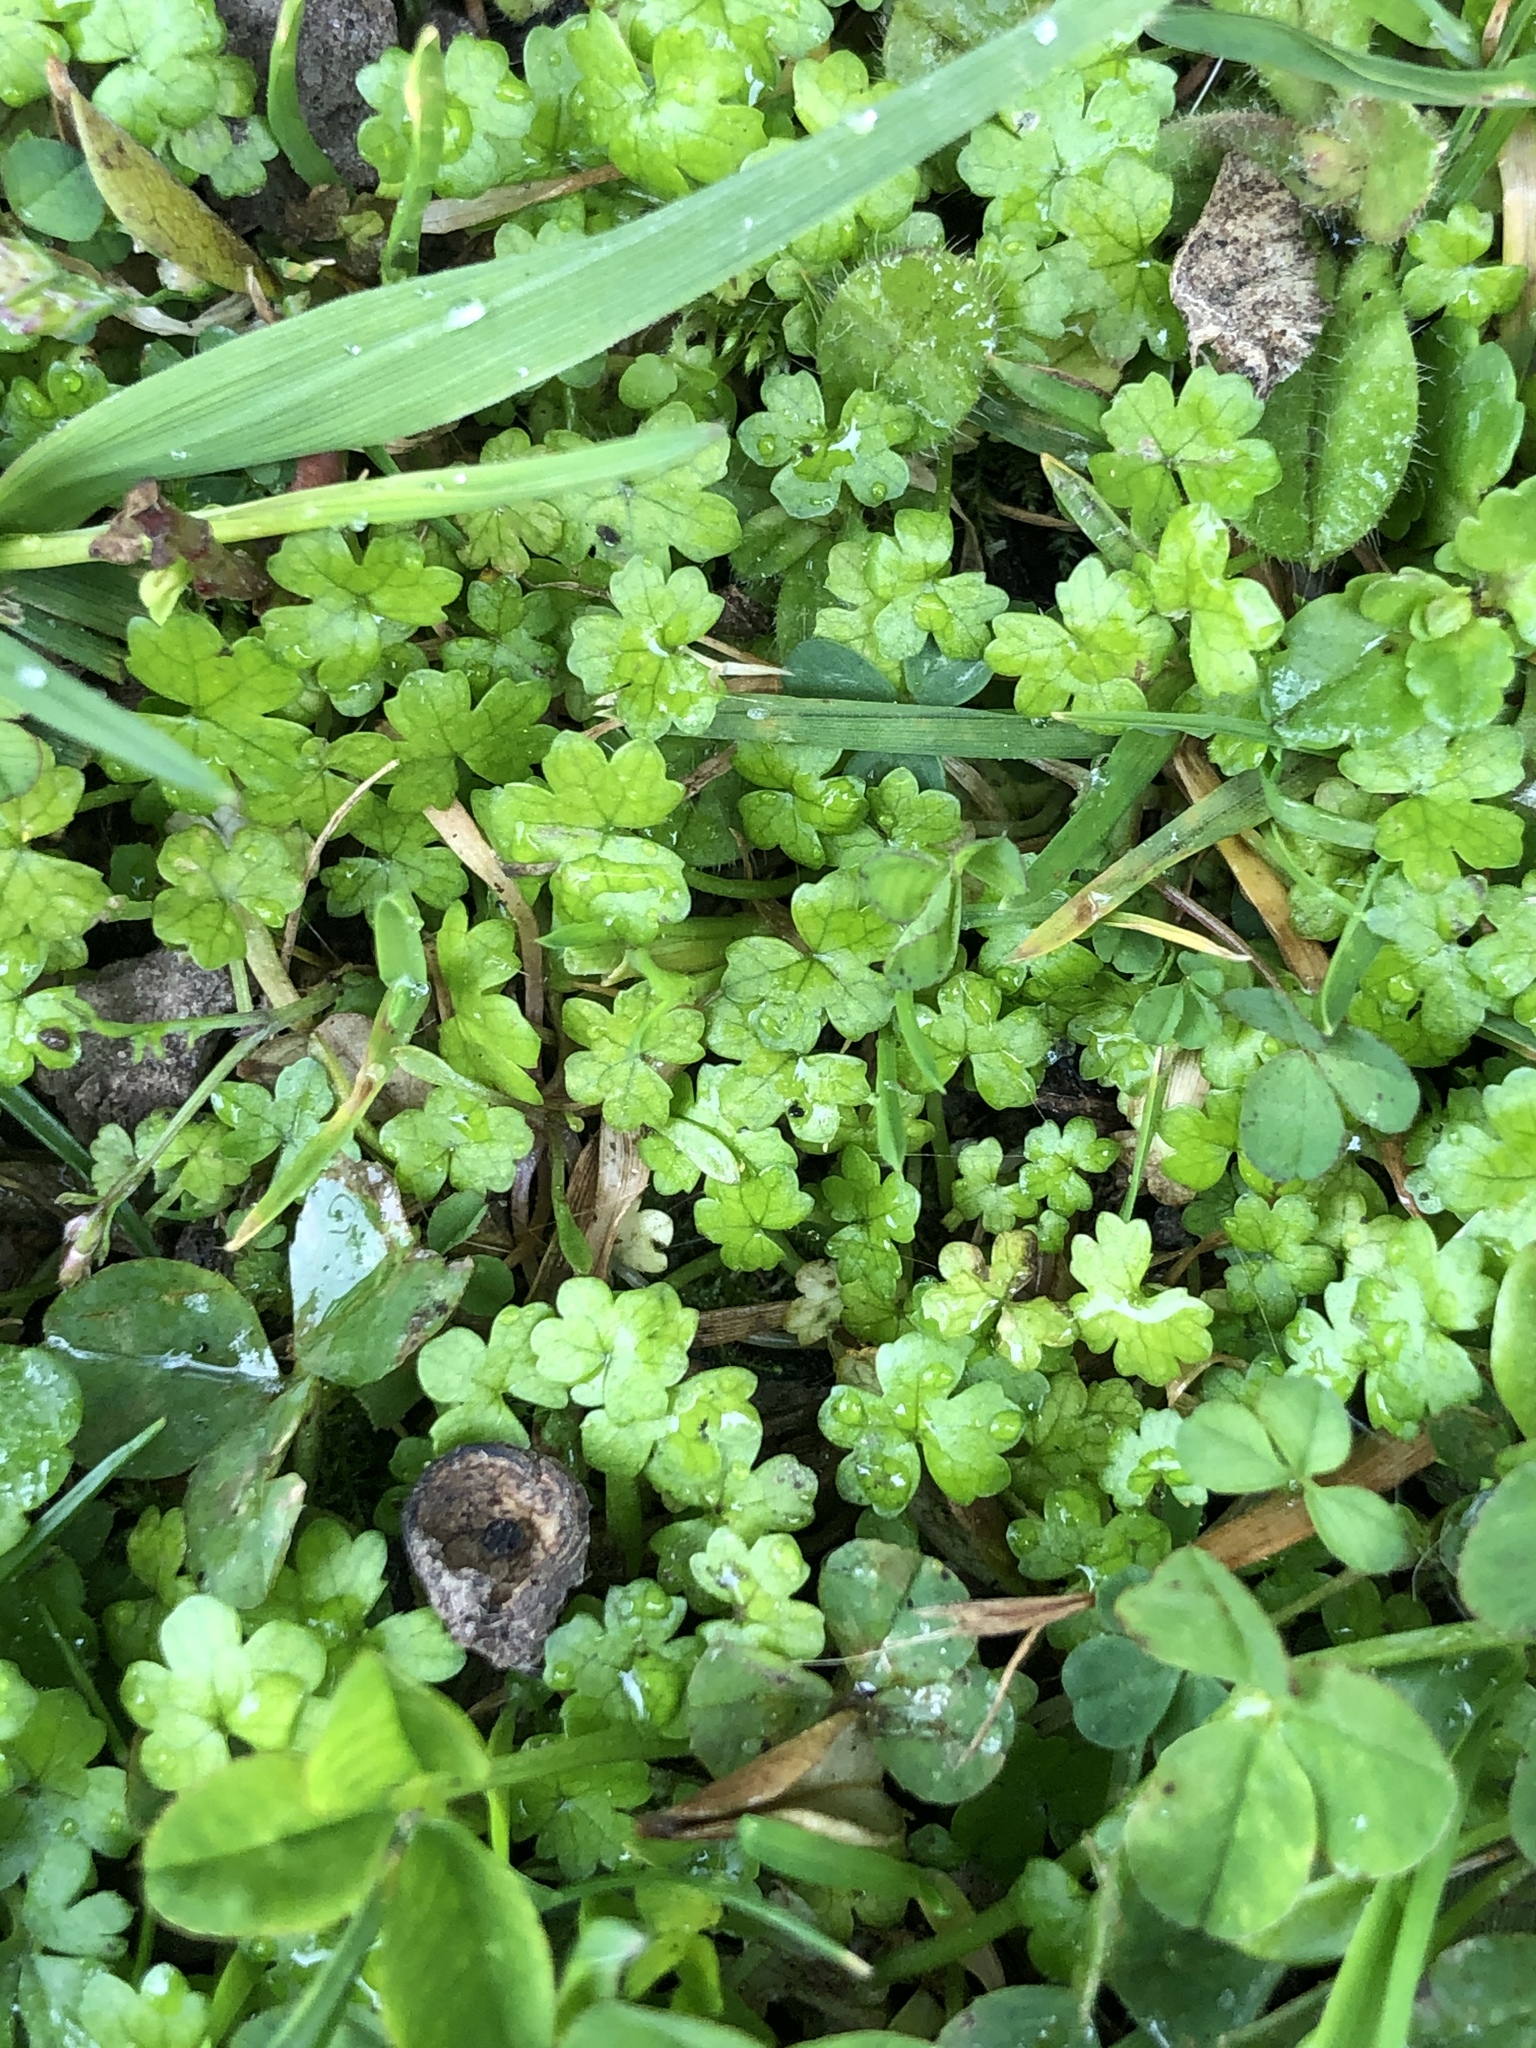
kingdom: Plantae
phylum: Tracheophyta
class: Magnoliopsida
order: Apiales
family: Araliaceae
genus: Hydrocotyle
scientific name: Hydrocotyle heteromeria
